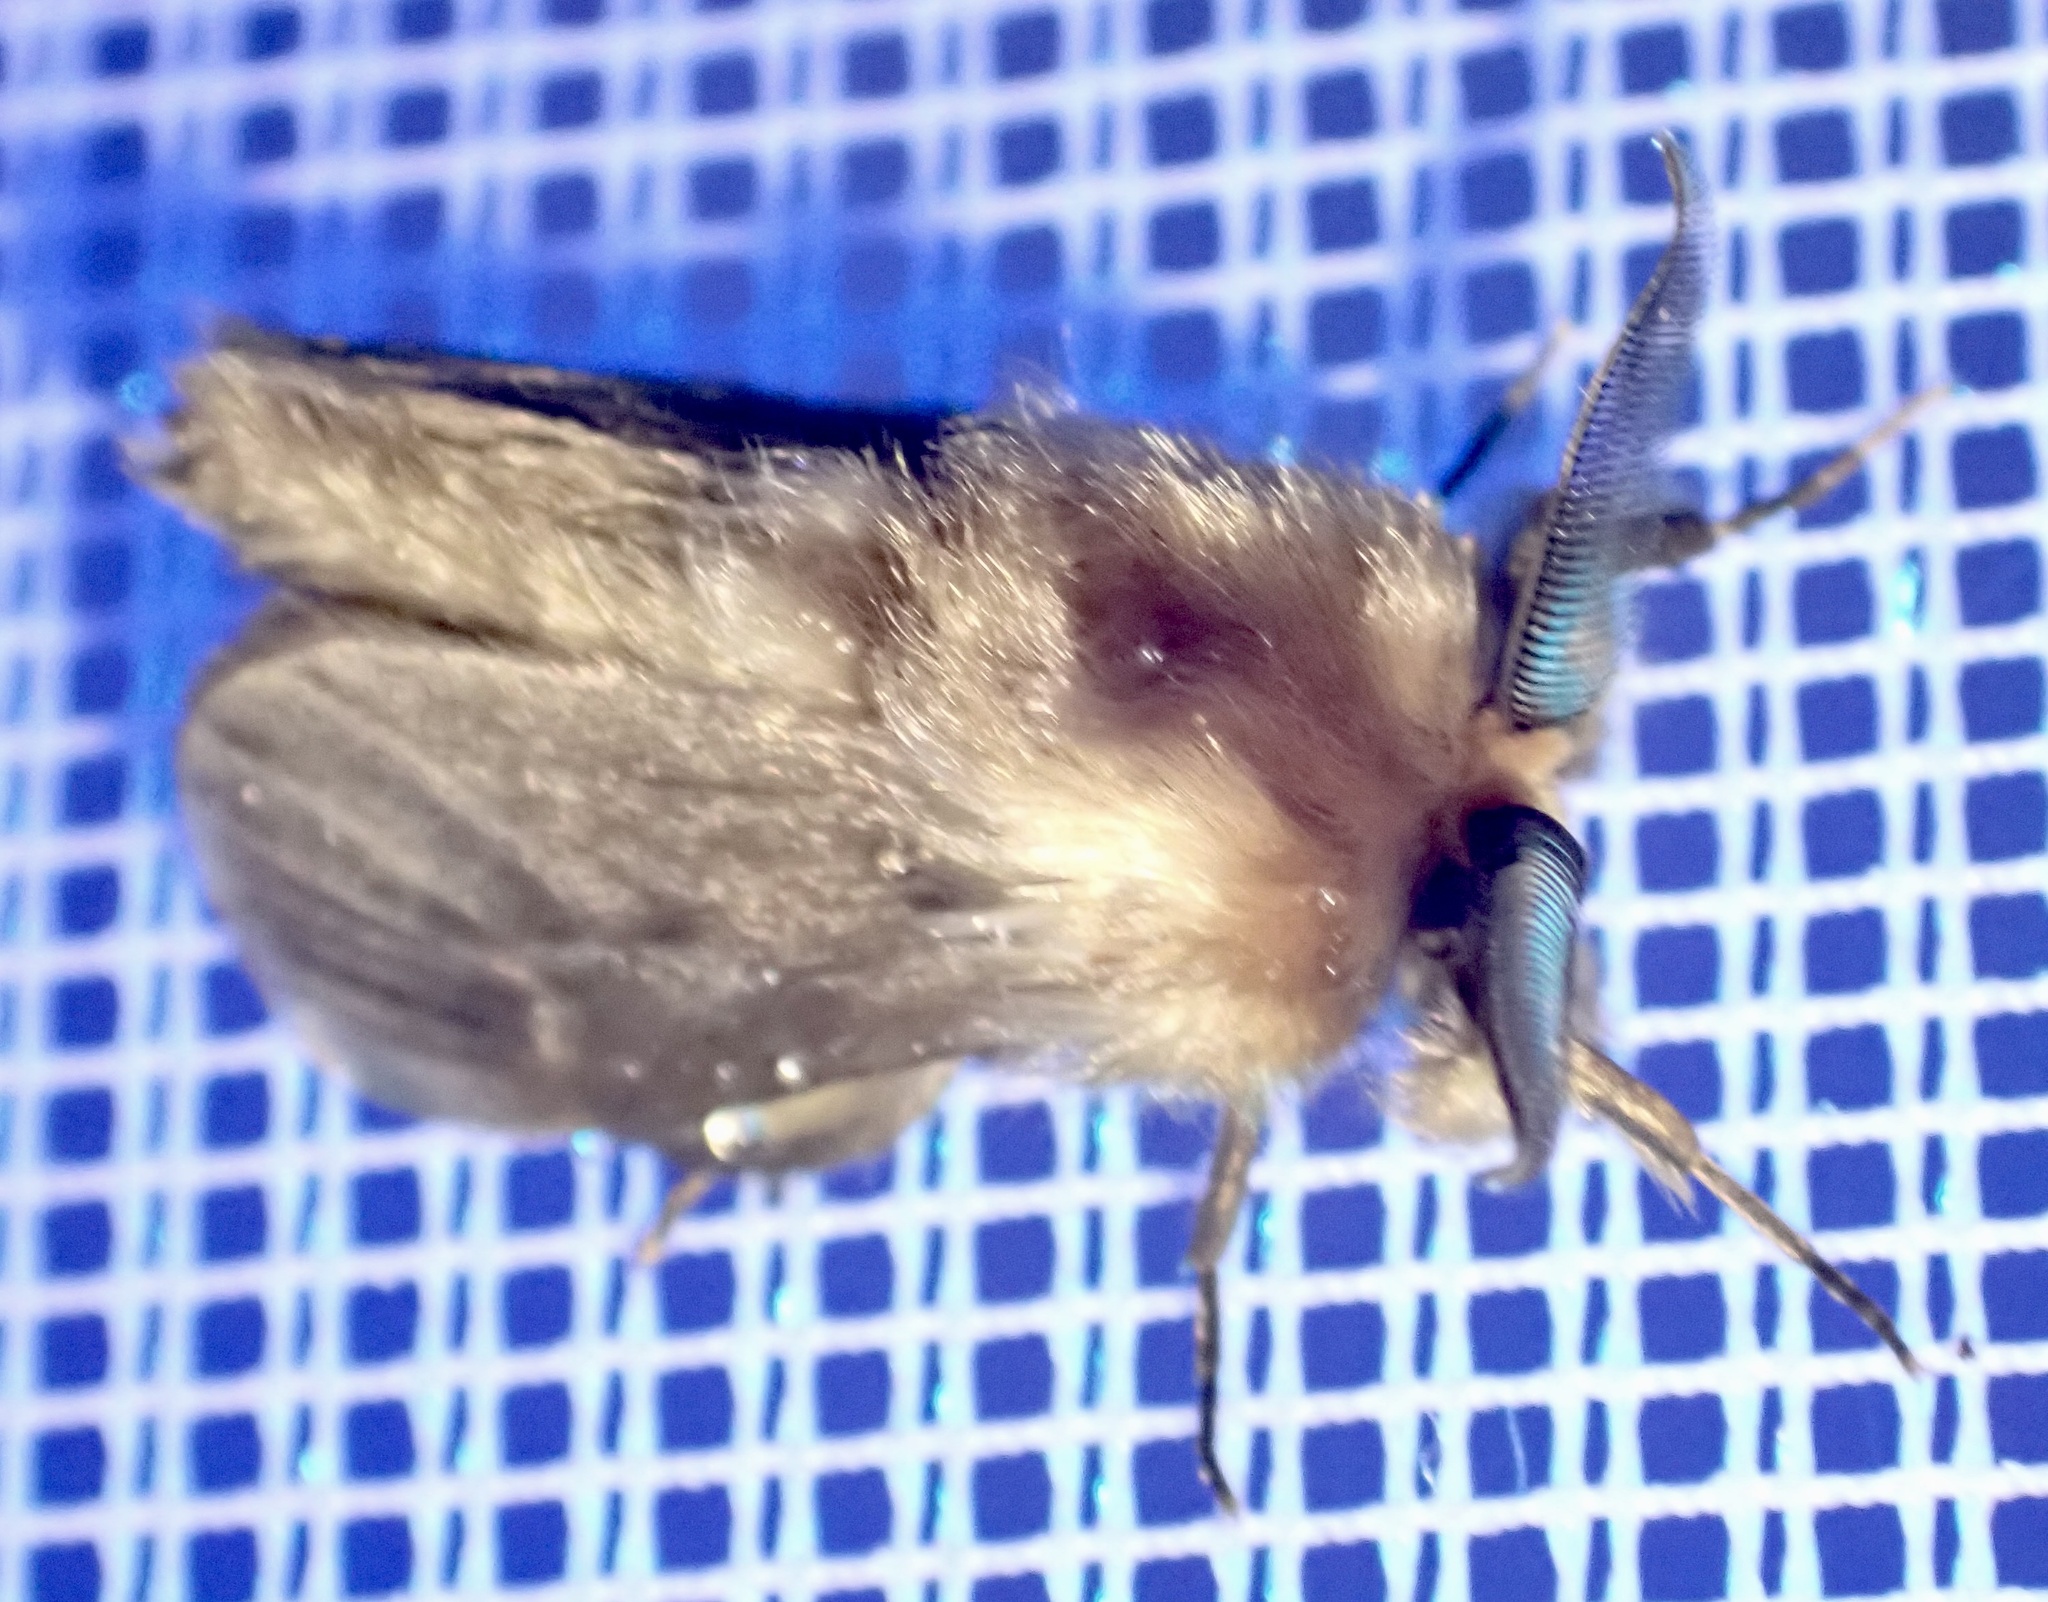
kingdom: Animalia
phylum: Arthropoda
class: Insecta
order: Lepidoptera
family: Psychidae
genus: Lomera
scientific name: Lomera lurida
